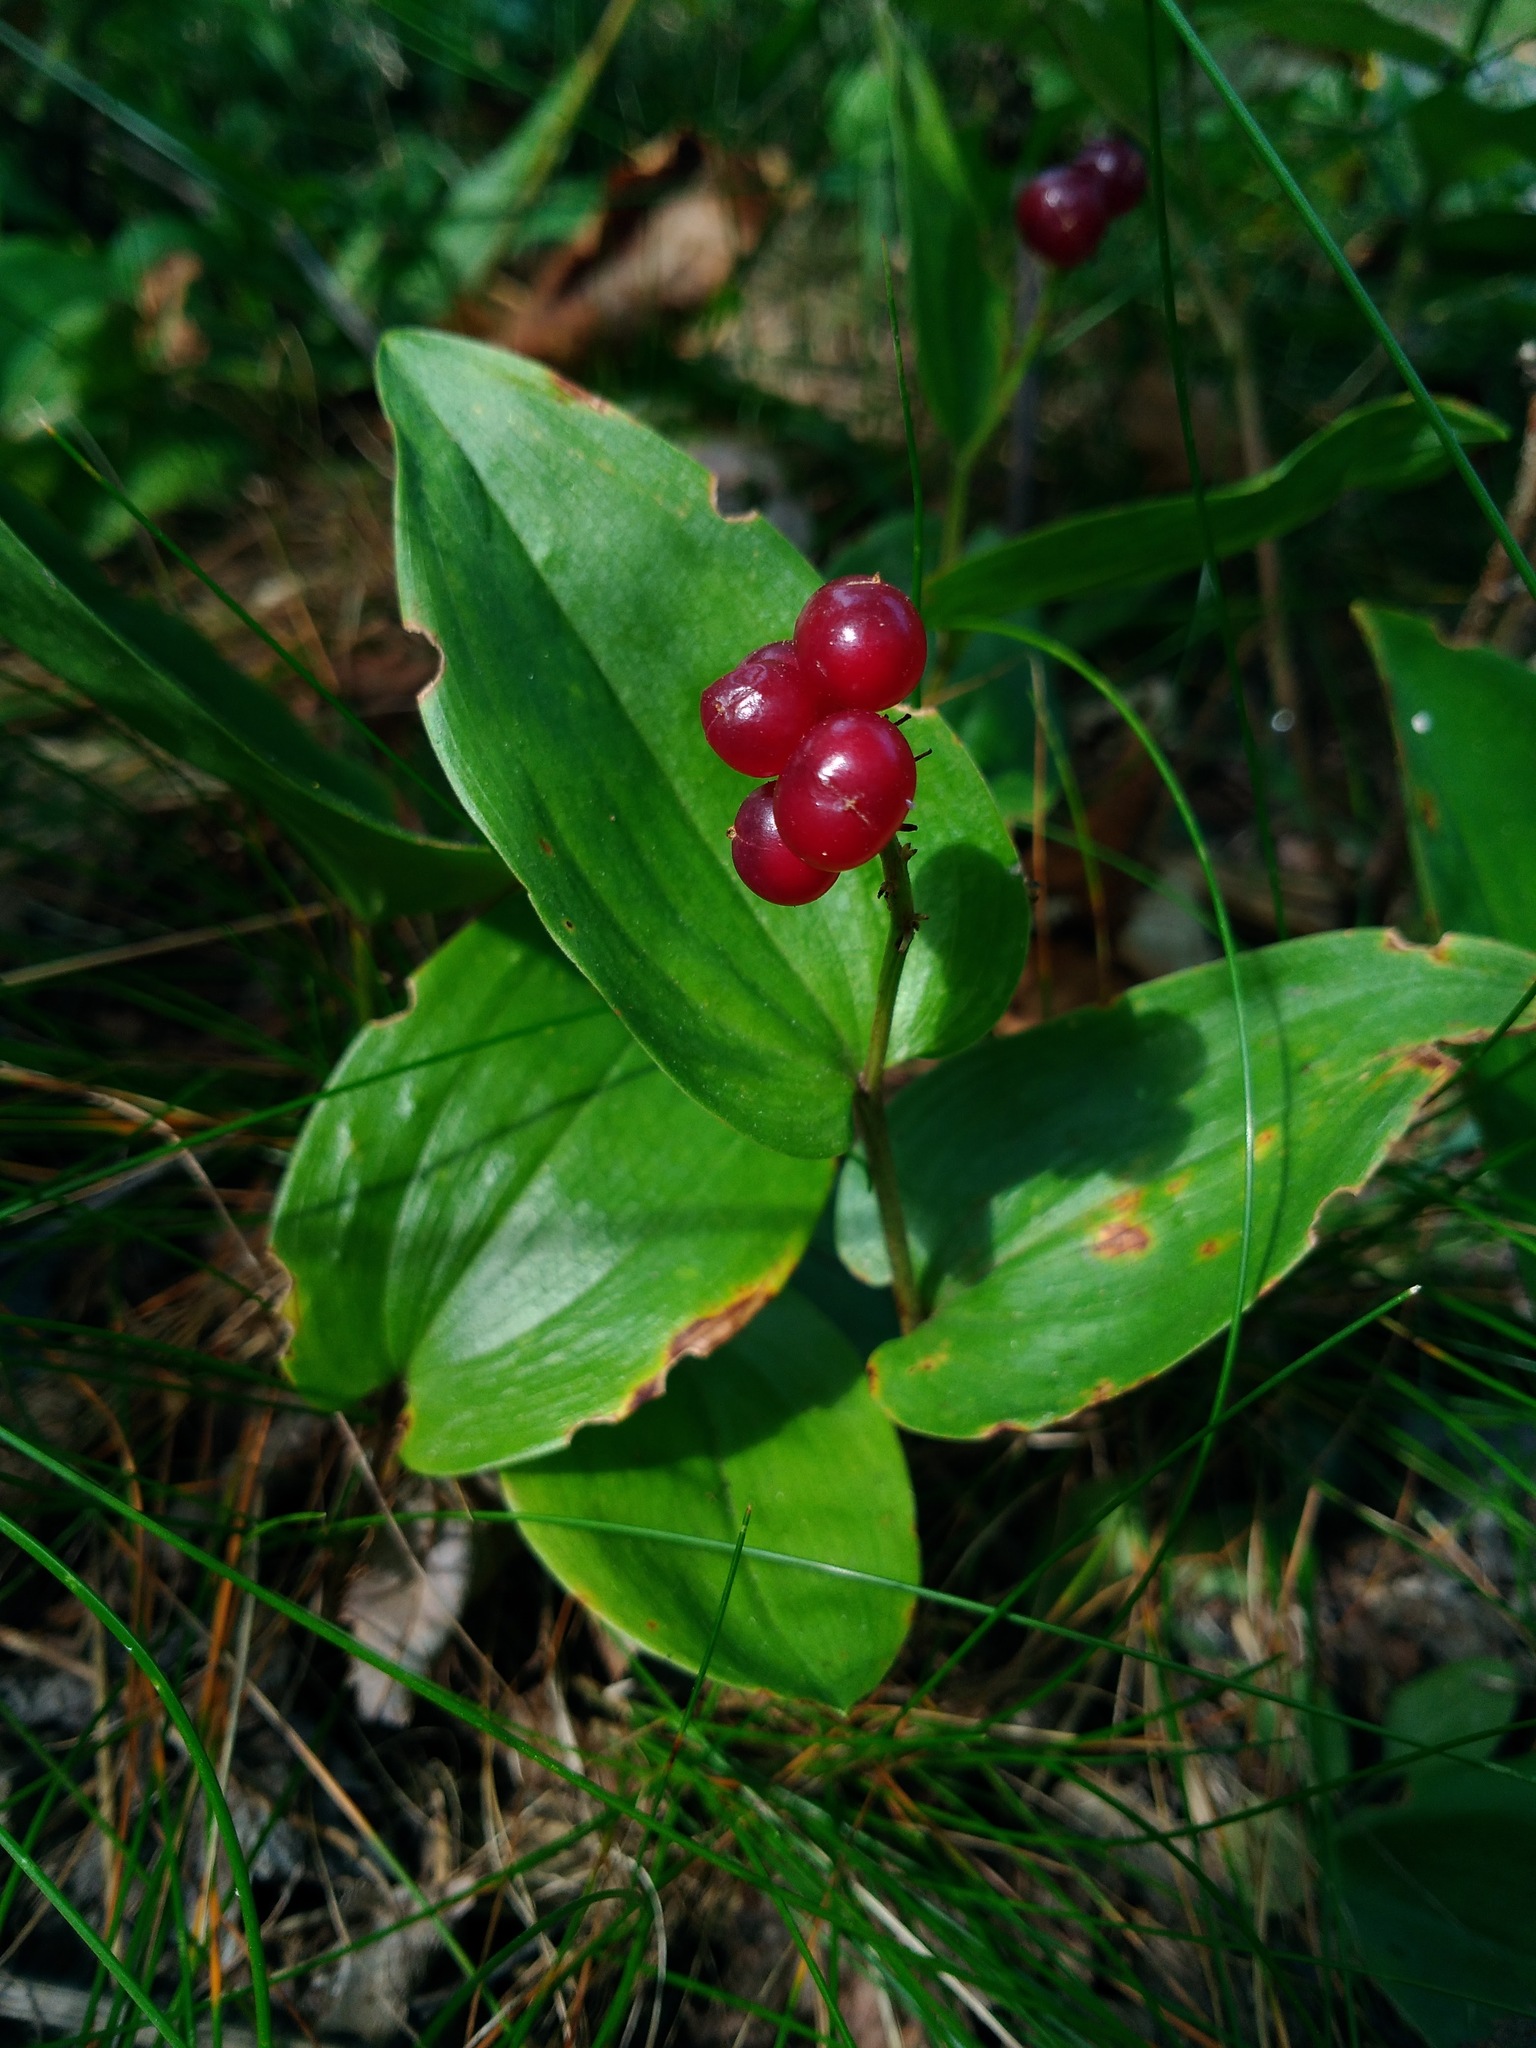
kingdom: Plantae
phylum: Tracheophyta
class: Liliopsida
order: Asparagales
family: Asparagaceae
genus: Maianthemum
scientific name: Maianthemum canadense
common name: False lily-of-the-valley
